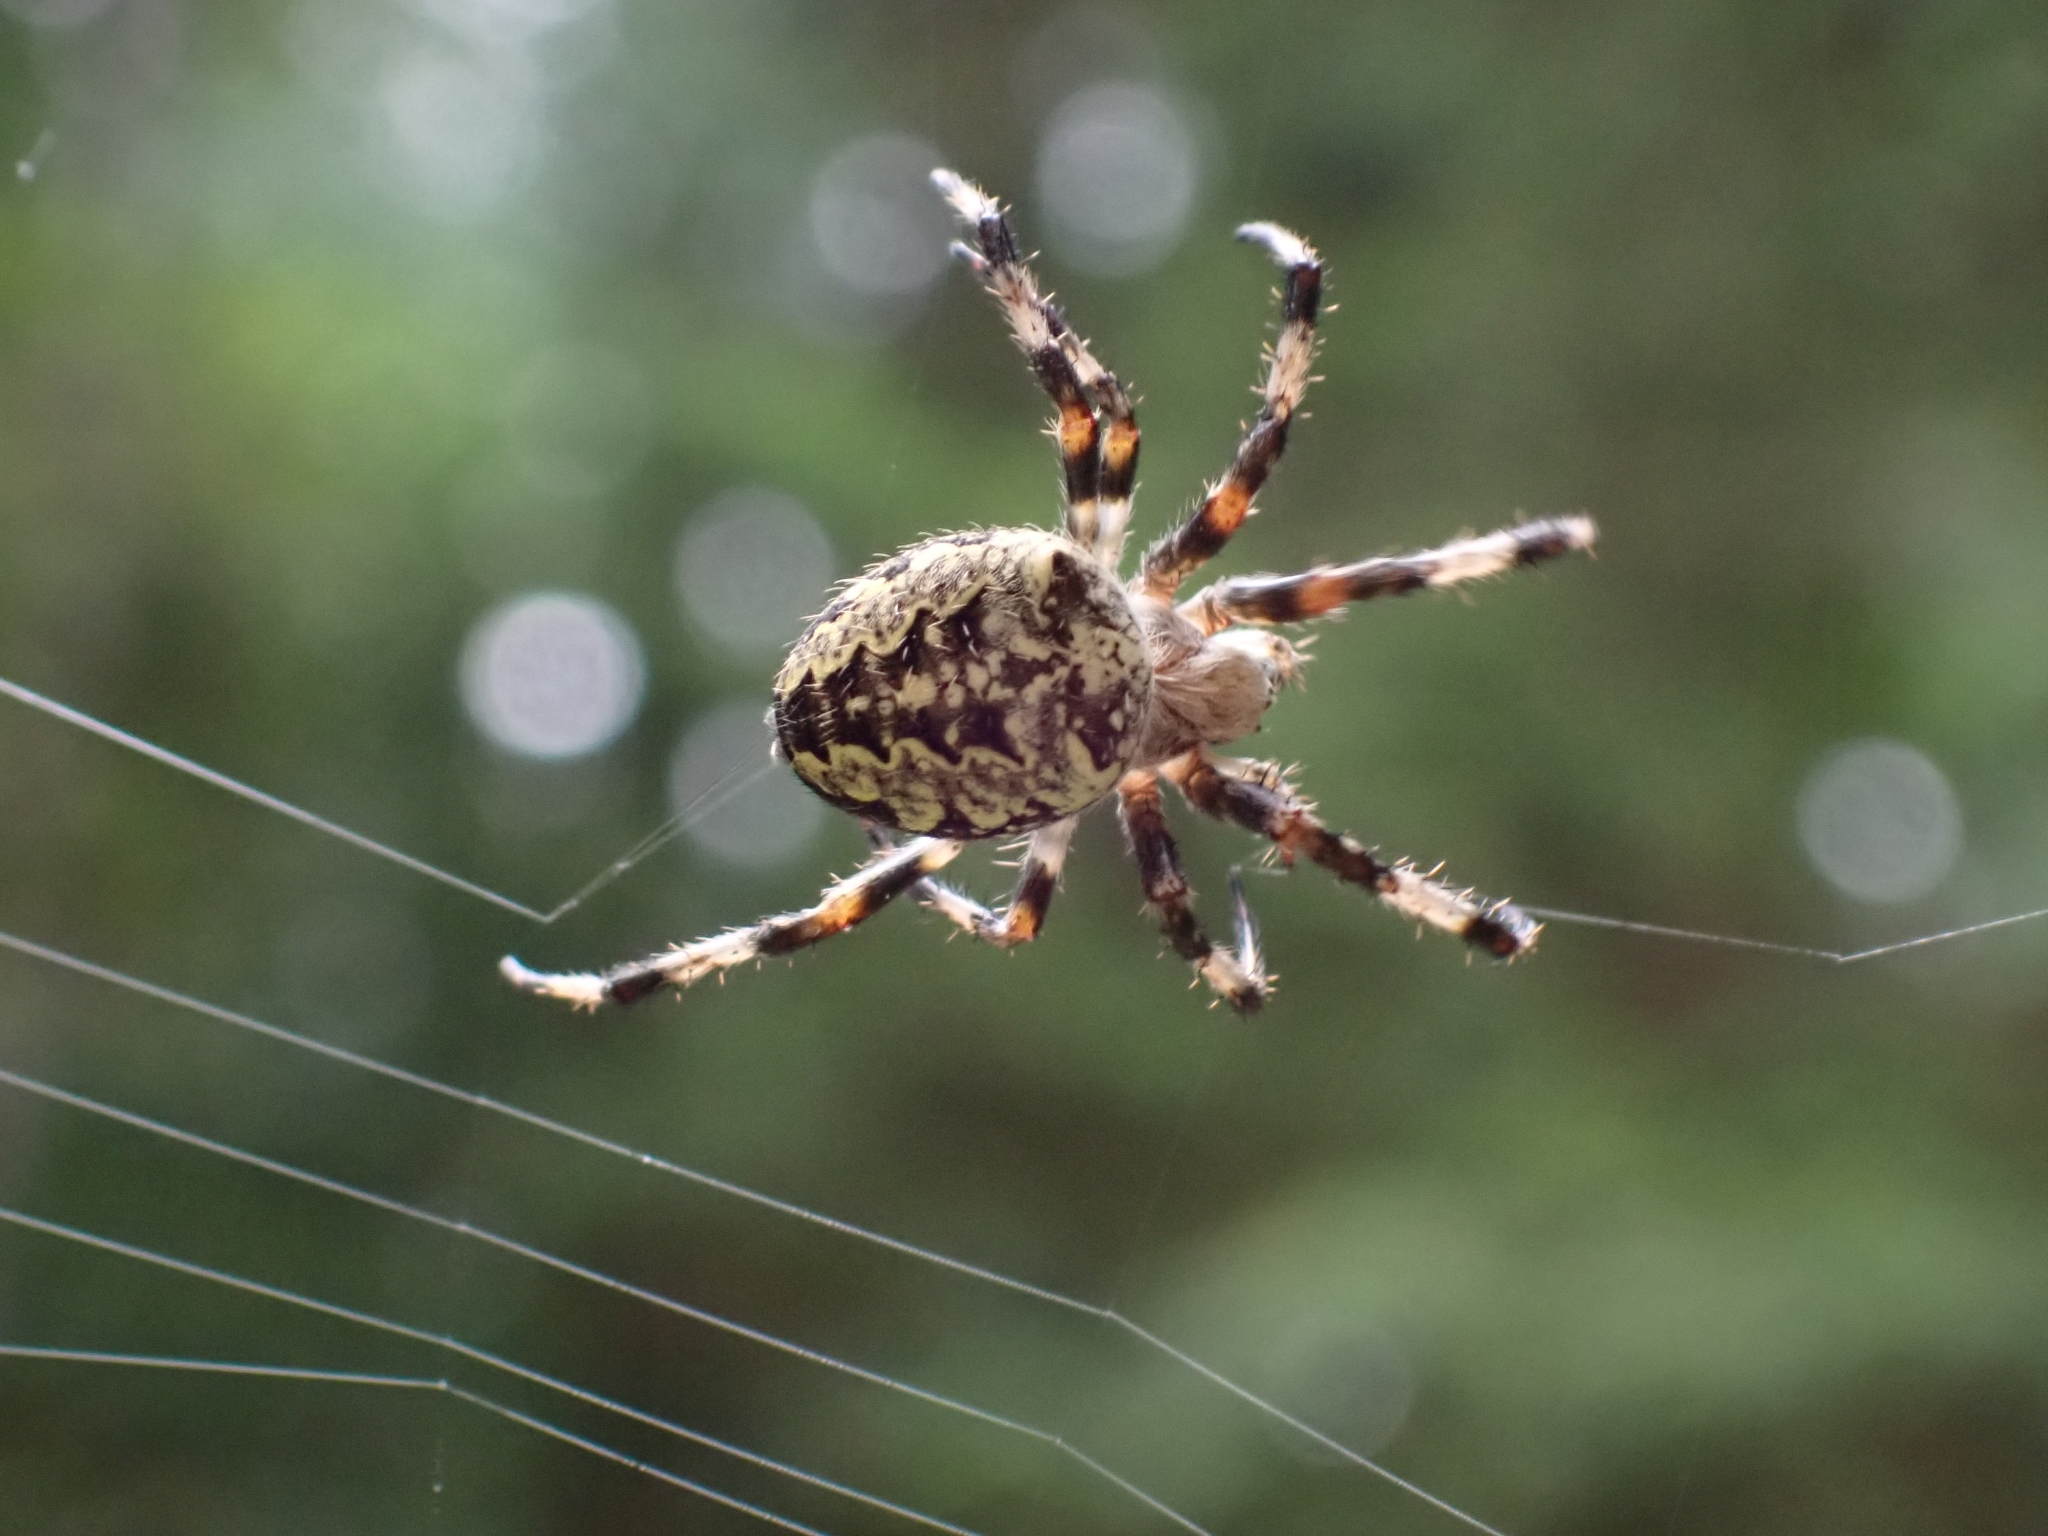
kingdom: Animalia
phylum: Arthropoda
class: Arachnida
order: Araneae
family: Araneidae
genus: Araneus
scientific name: Araneus nordmanni
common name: Nordmann's orbweaver
